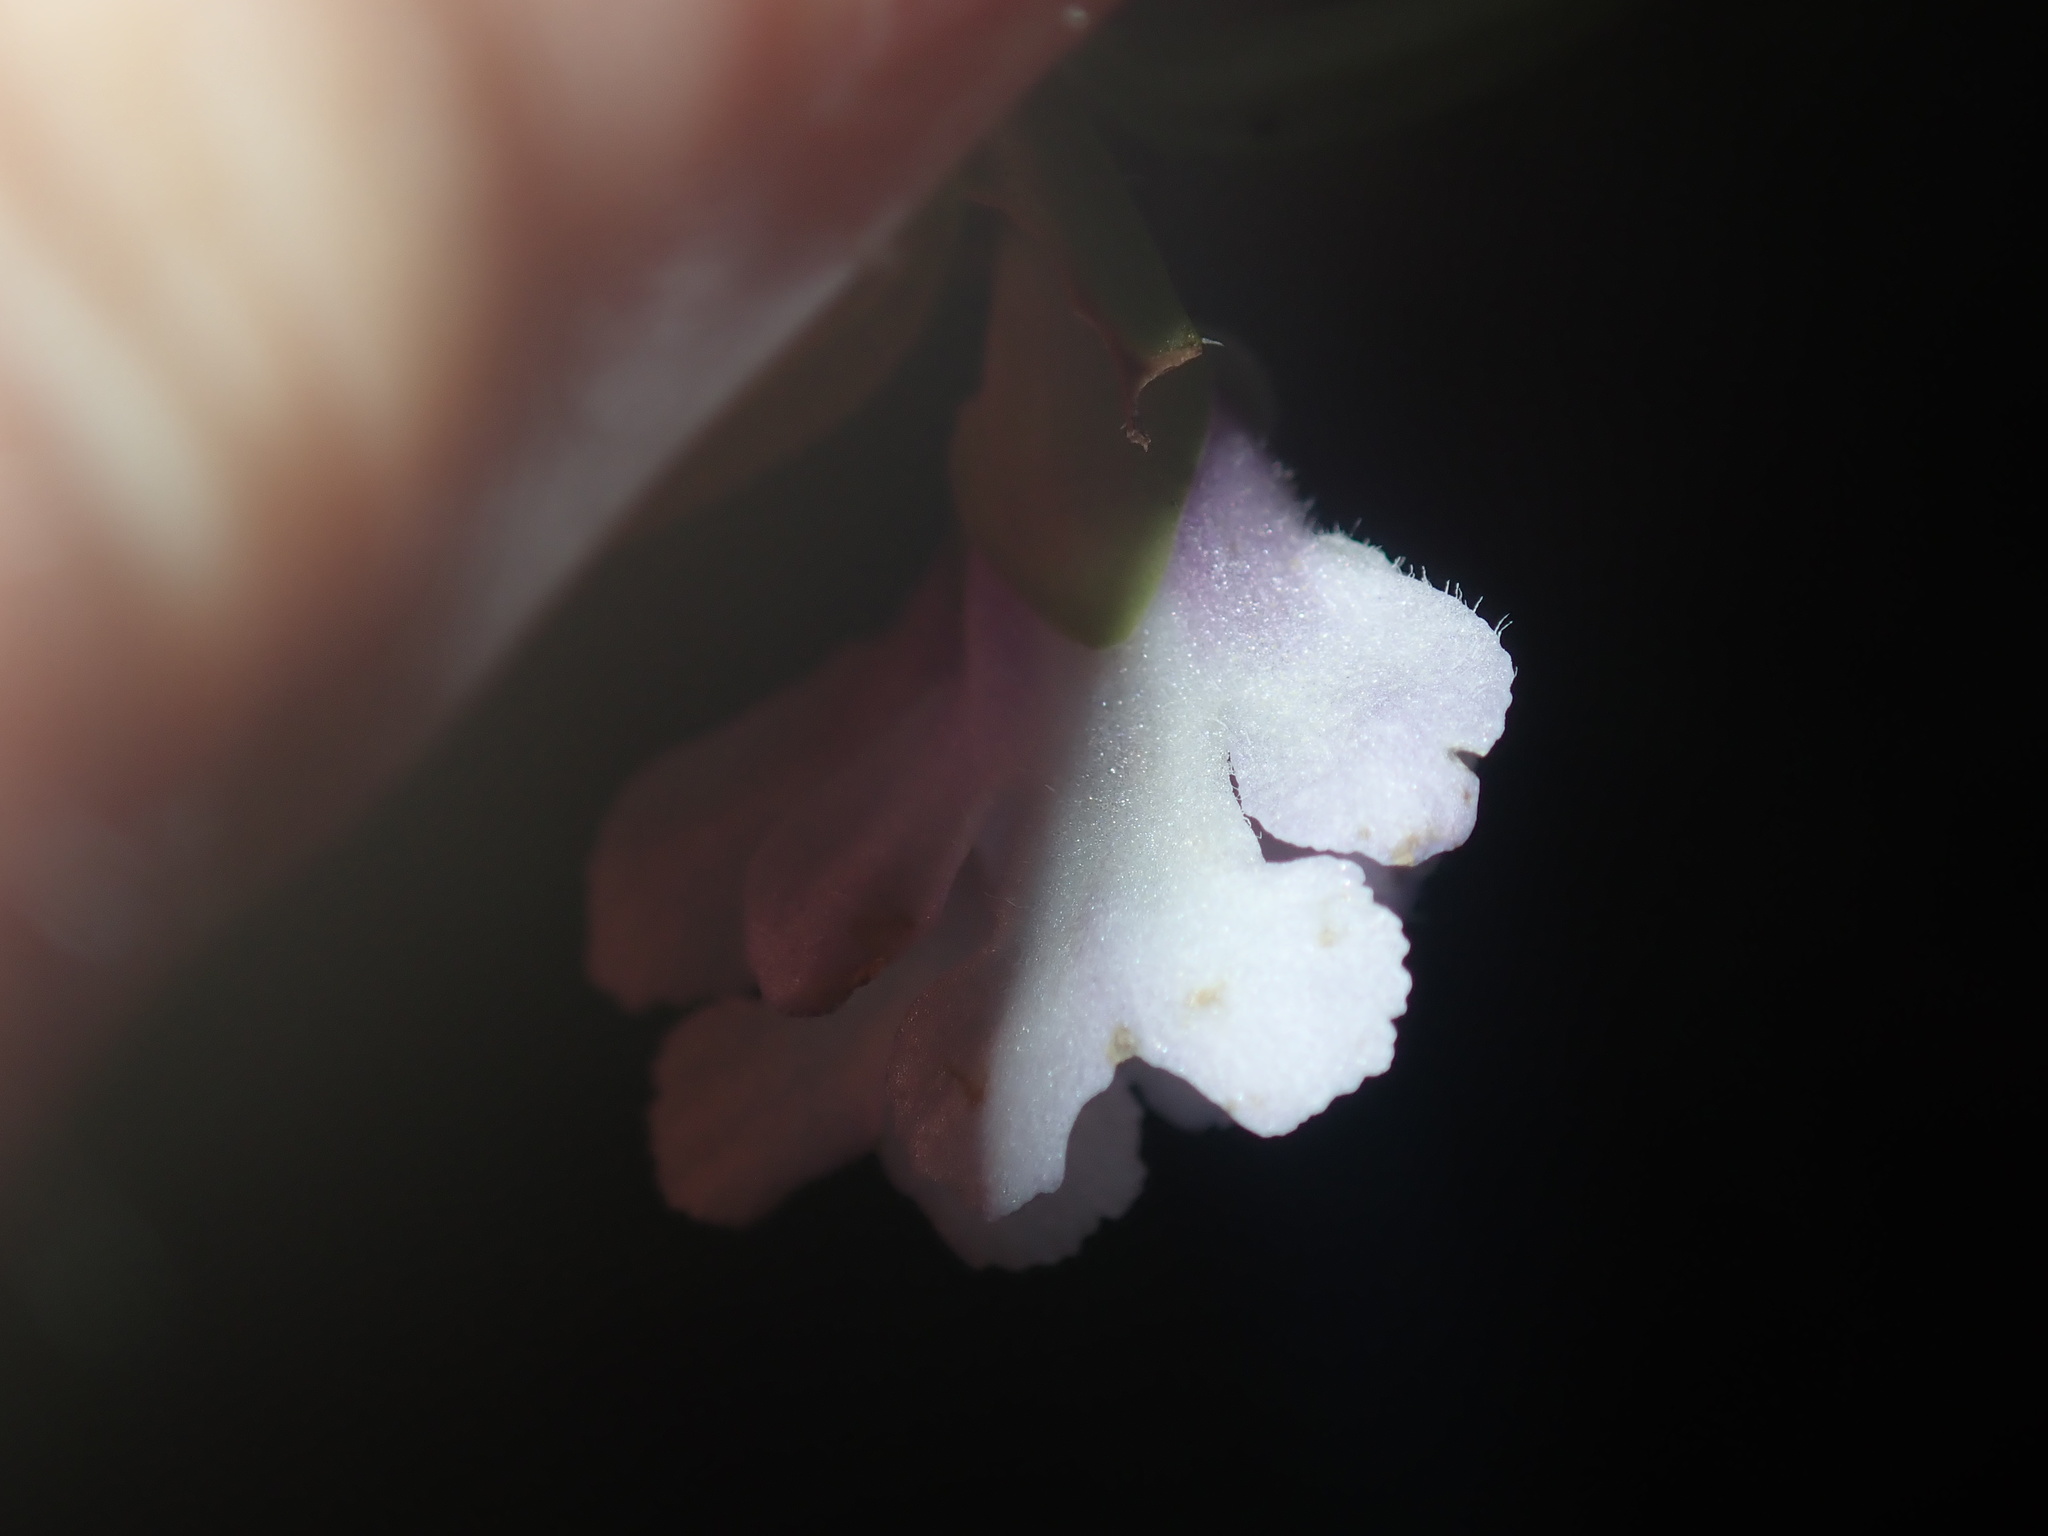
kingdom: Plantae
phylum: Tracheophyta
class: Magnoliopsida
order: Lamiales
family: Lamiaceae
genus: Prostanthera
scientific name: Prostanthera linearis
